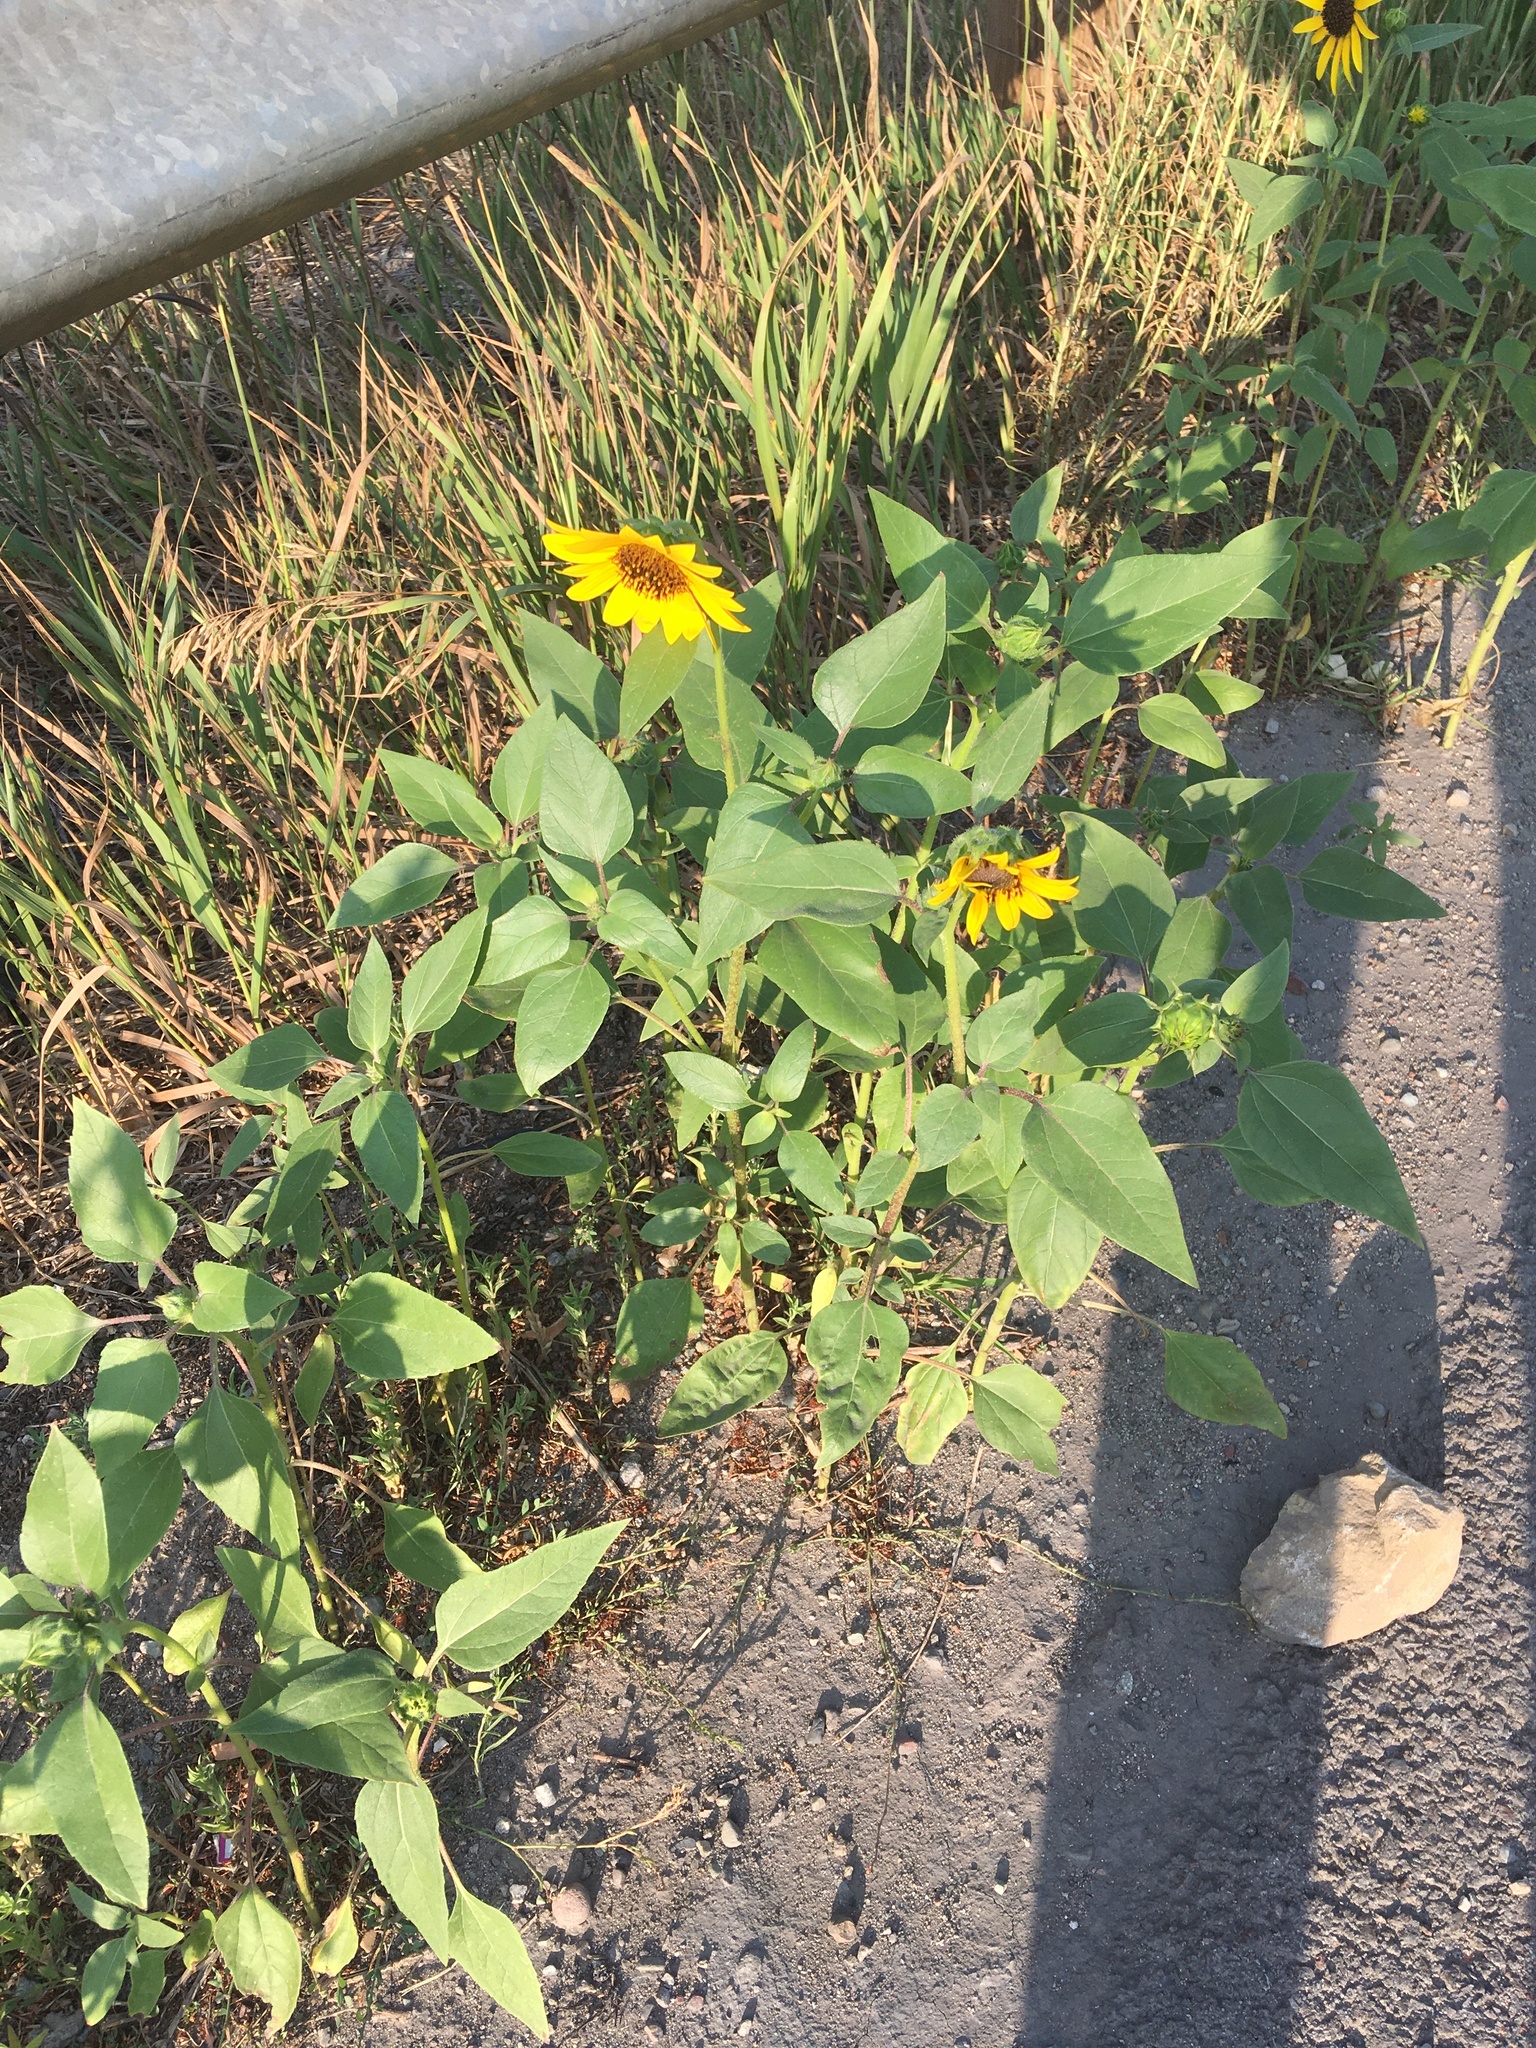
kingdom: Plantae
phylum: Tracheophyta
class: Magnoliopsida
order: Asterales
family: Asteraceae
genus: Helianthus
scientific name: Helianthus annuus
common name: Sunflower
